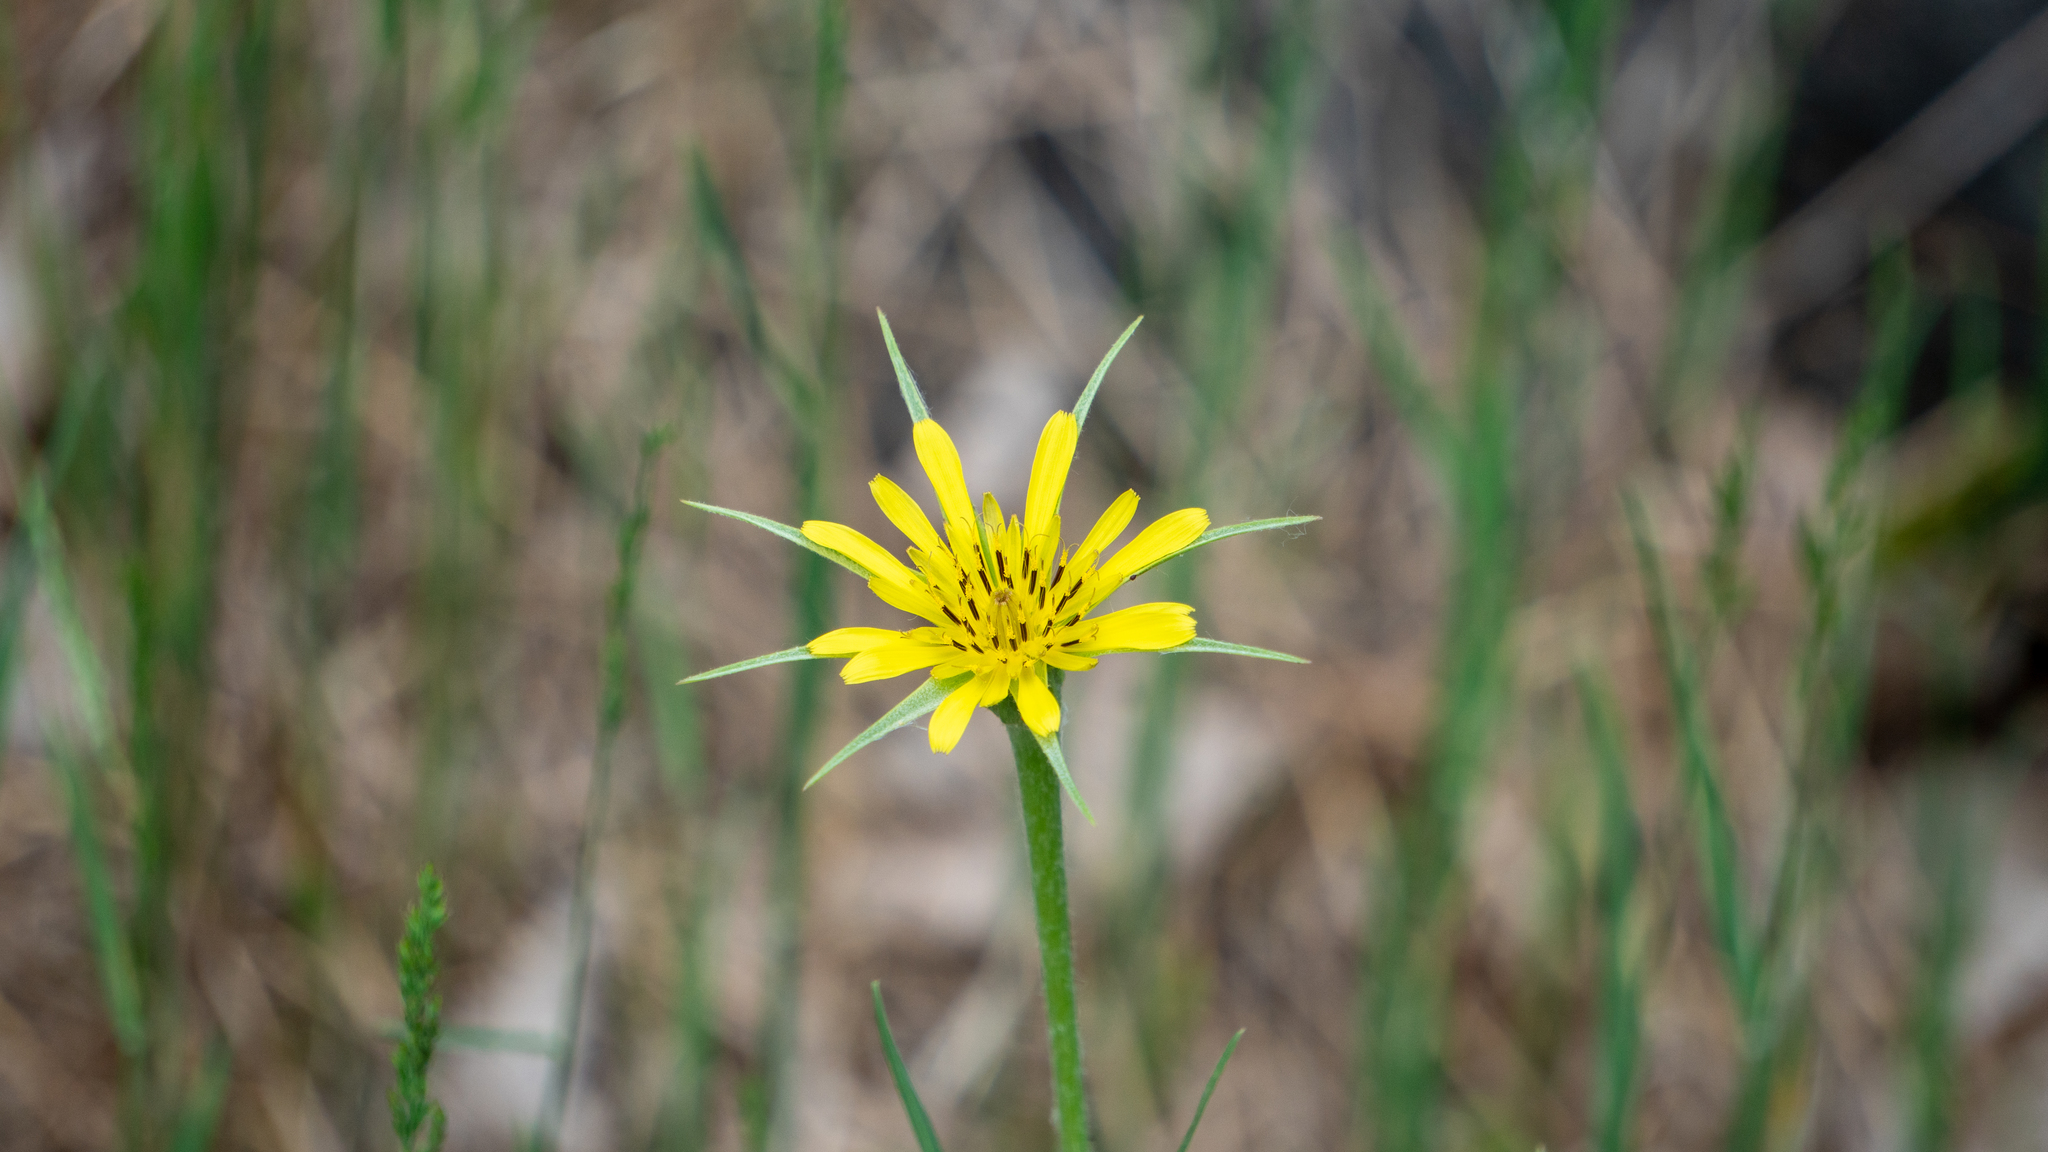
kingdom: Plantae
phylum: Tracheophyta
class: Magnoliopsida
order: Asterales
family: Asteraceae
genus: Tragopogon
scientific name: Tragopogon dubius
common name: Yellow salsify
